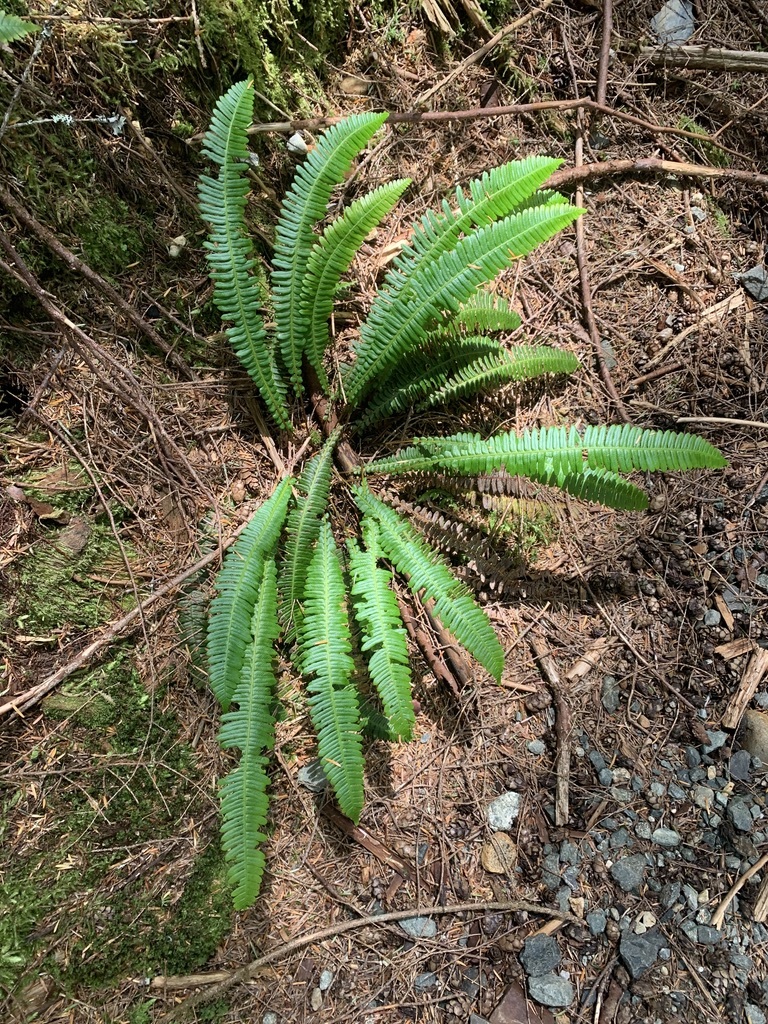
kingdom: Plantae
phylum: Tracheophyta
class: Polypodiopsida
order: Polypodiales
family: Blechnaceae
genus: Struthiopteris
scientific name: Struthiopteris spicant
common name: Deer fern
